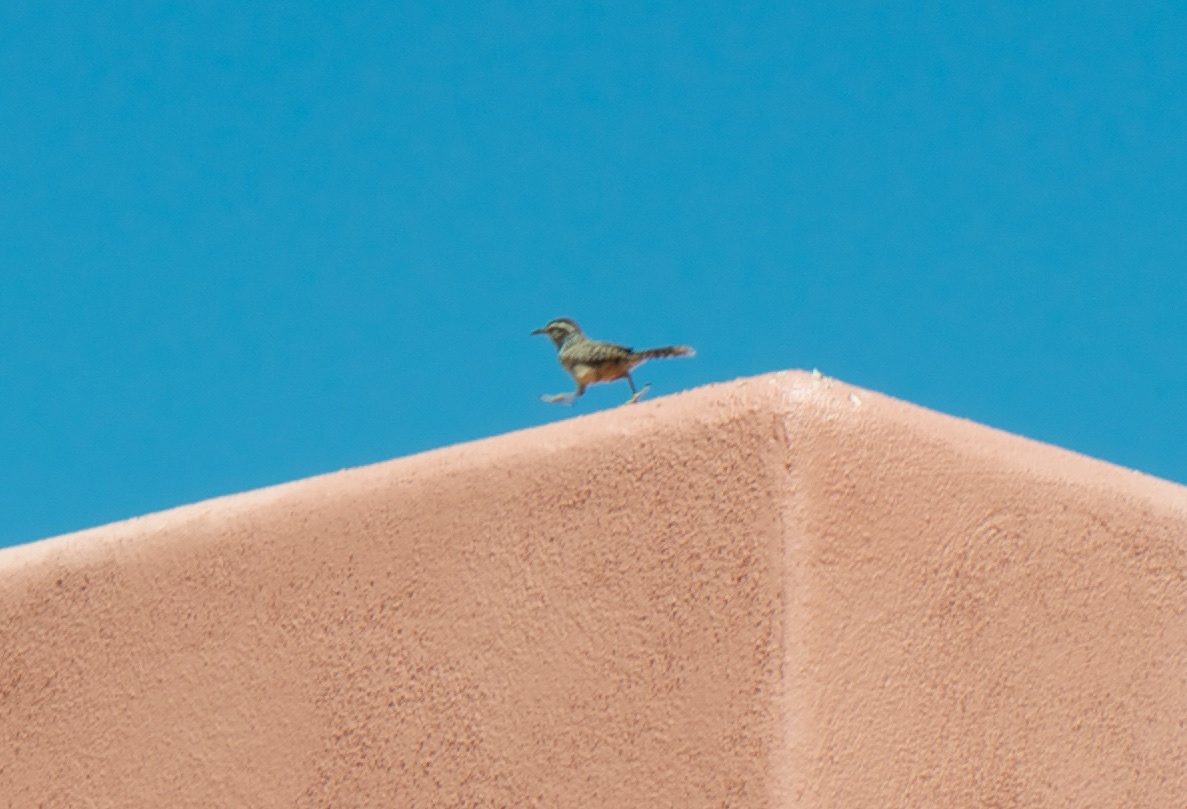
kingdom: Animalia
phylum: Chordata
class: Aves
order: Passeriformes
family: Troglodytidae
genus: Campylorhynchus
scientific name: Campylorhynchus brunneicapillus
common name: Cactus wren
